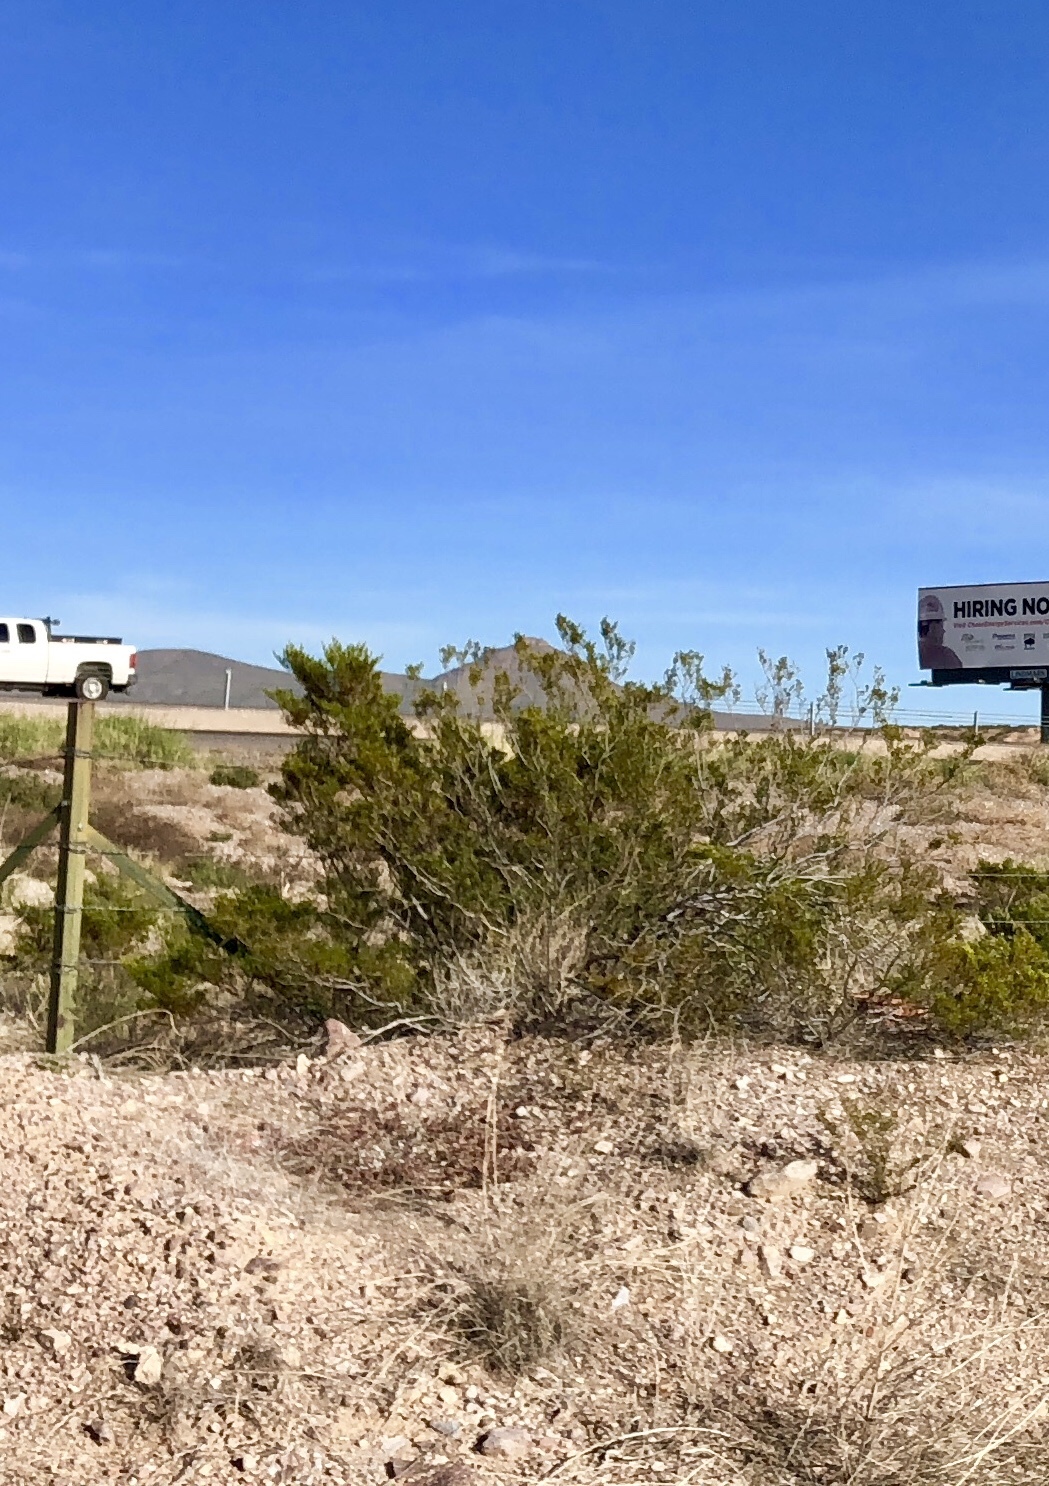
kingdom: Plantae
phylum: Tracheophyta
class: Magnoliopsida
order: Zygophyllales
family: Zygophyllaceae
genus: Larrea
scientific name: Larrea tridentata
